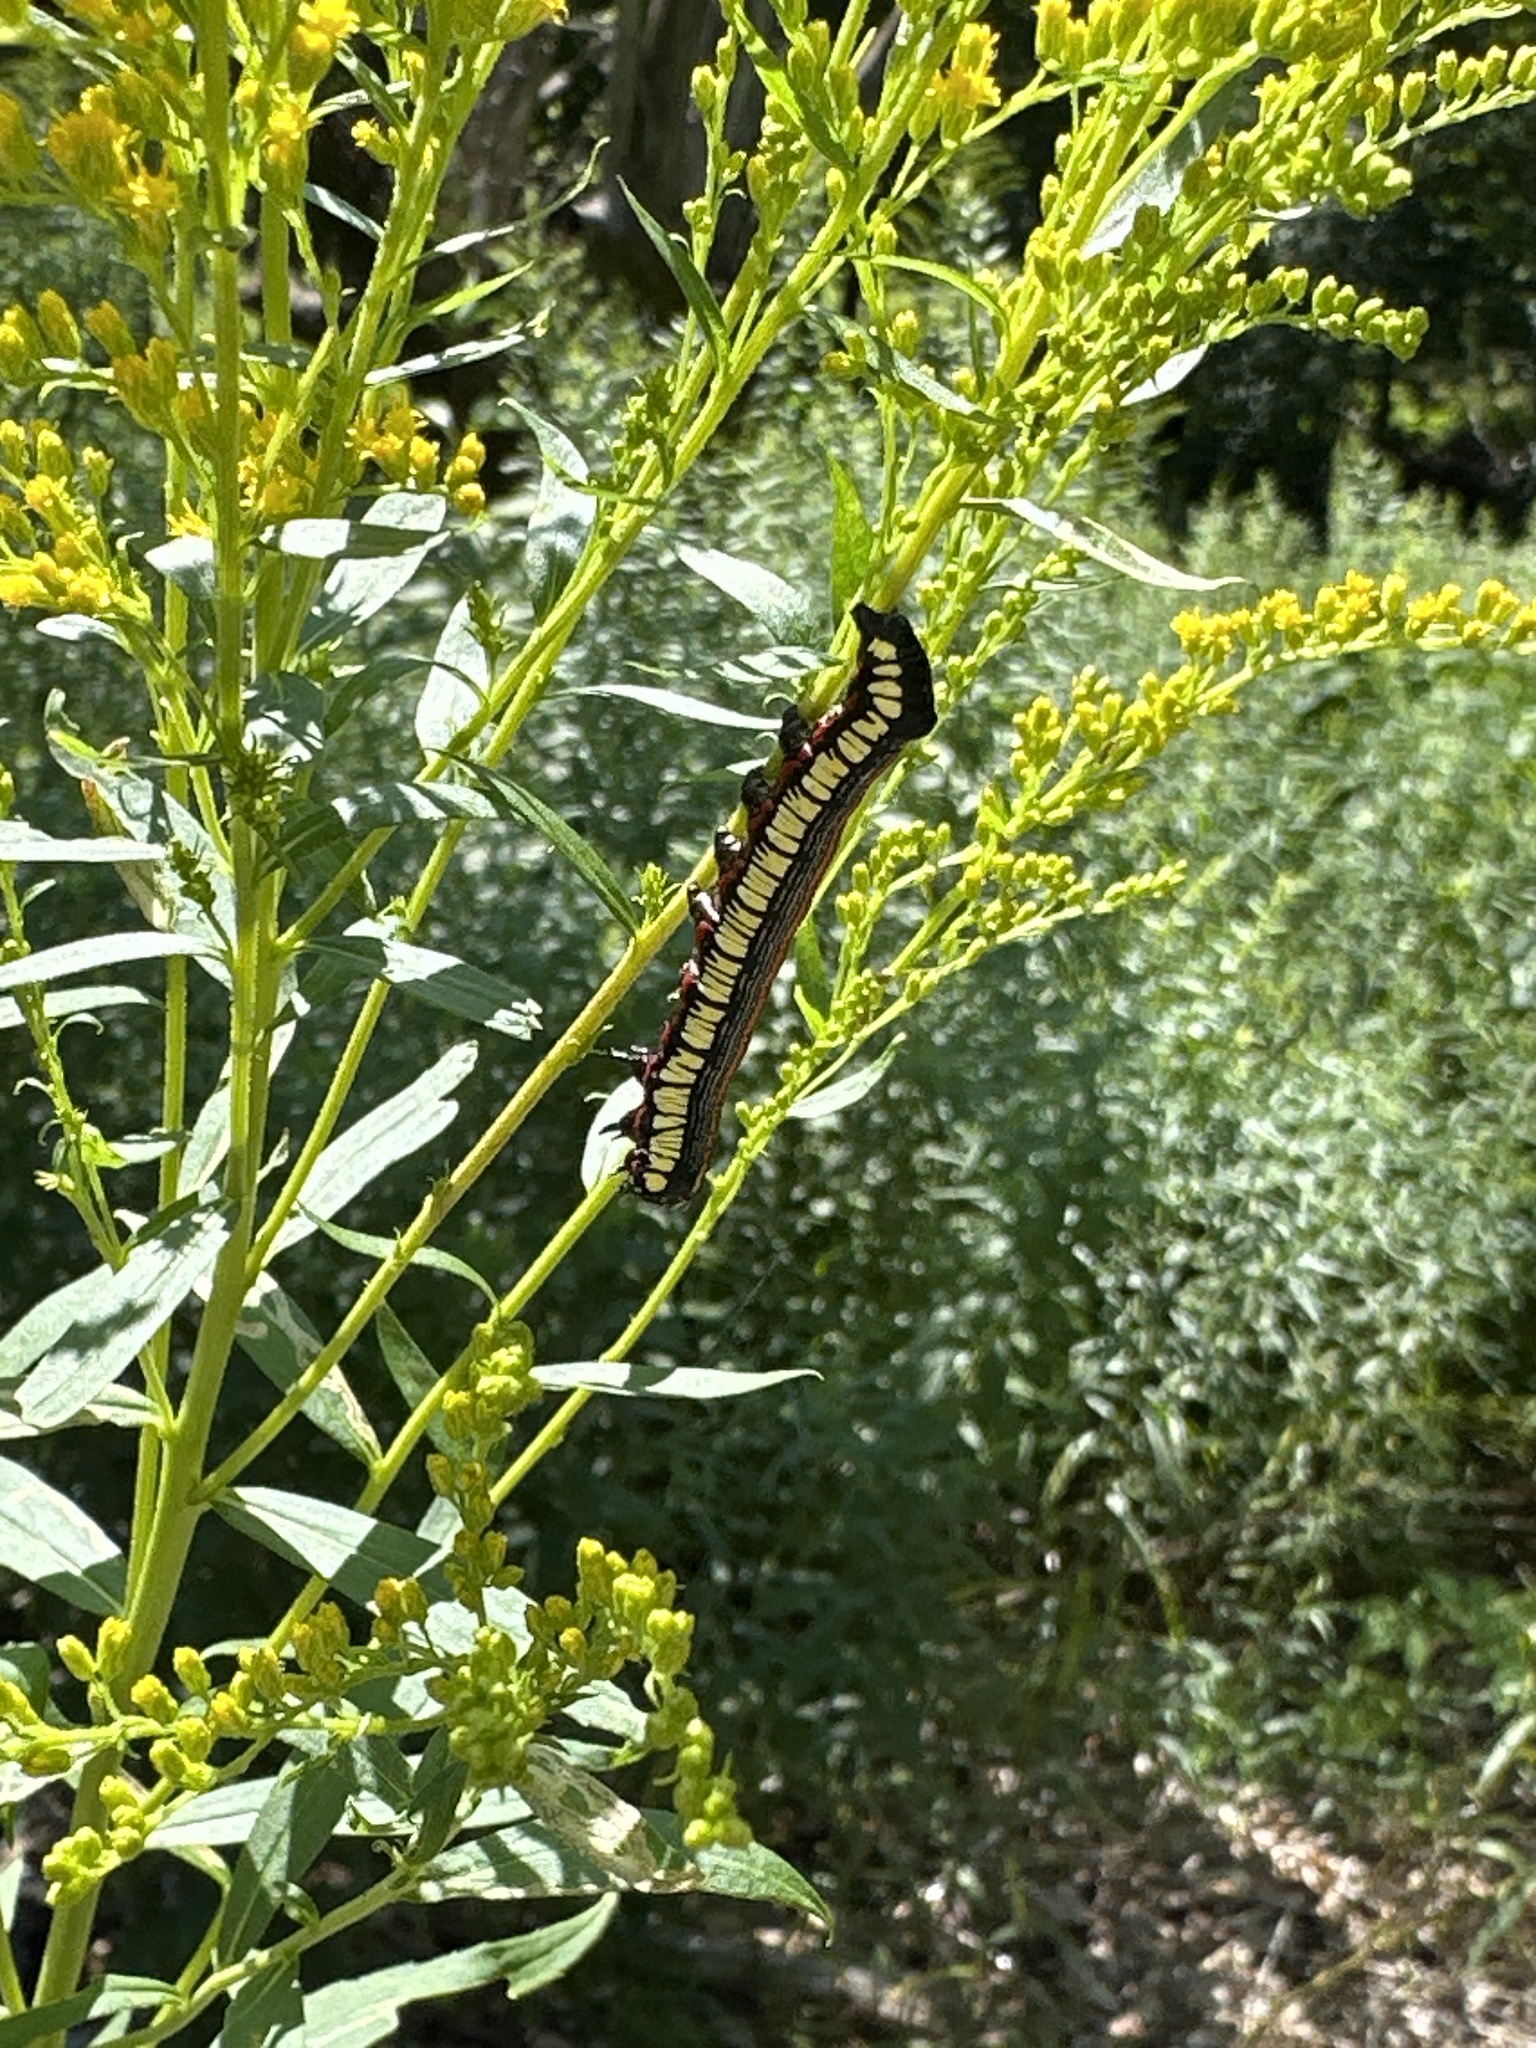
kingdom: Animalia
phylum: Arthropoda
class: Insecta
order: Lepidoptera
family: Noctuidae
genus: Cucullia
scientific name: Cucullia convexipennis
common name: Brown-hooded owlet
